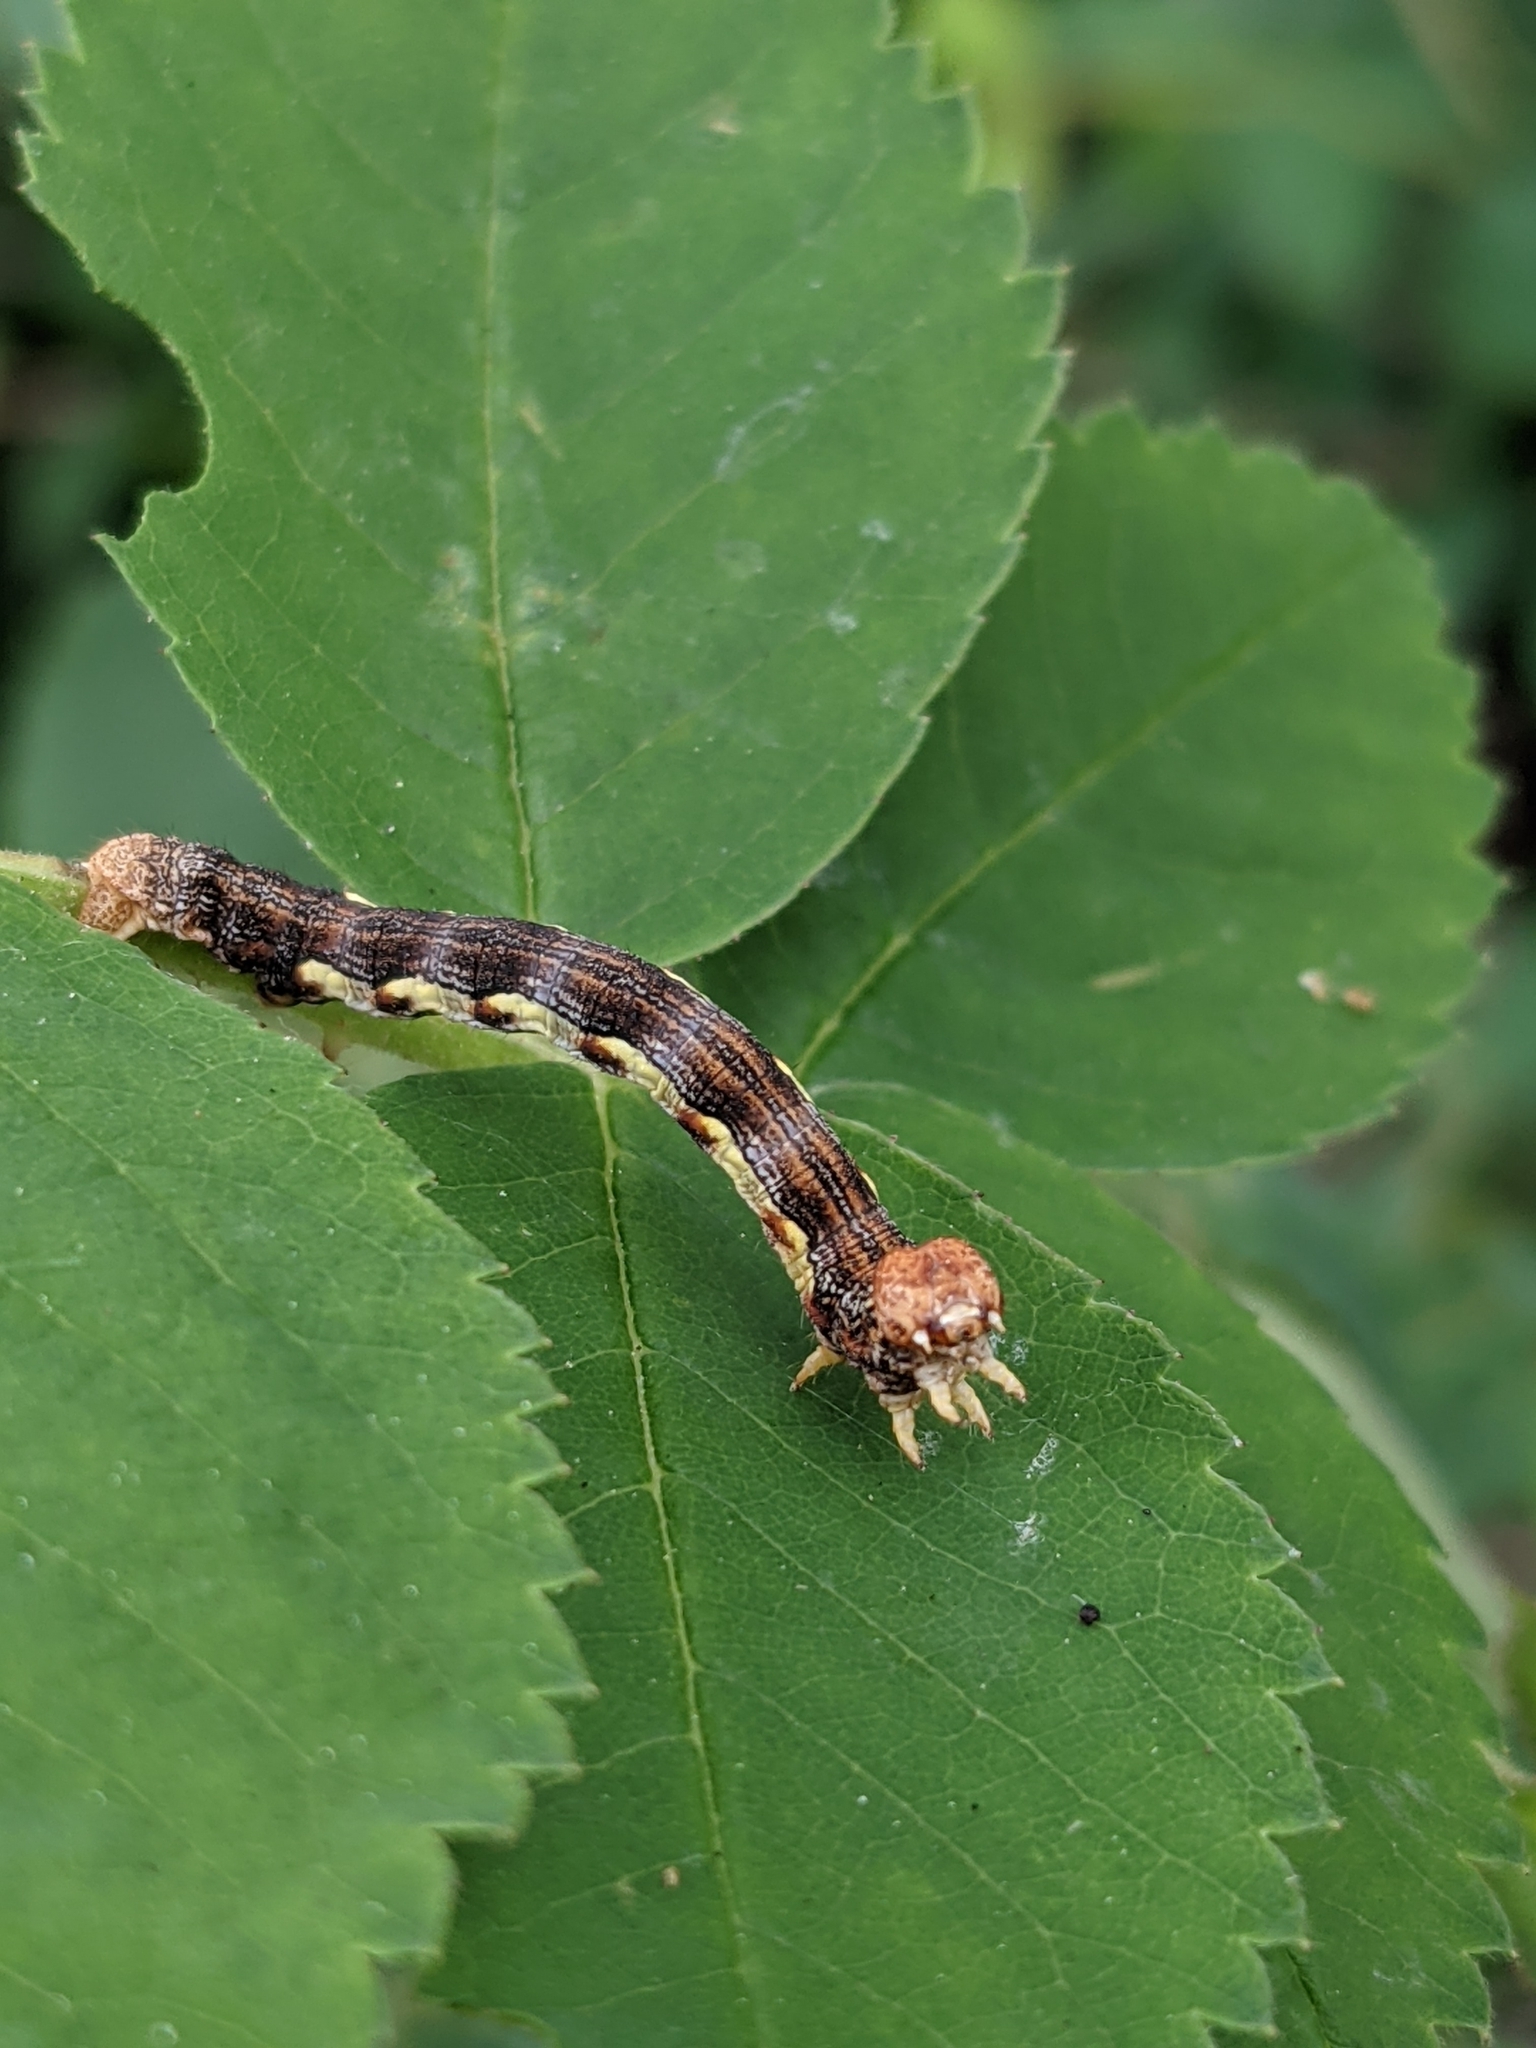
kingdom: Animalia
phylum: Arthropoda
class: Insecta
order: Lepidoptera
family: Geometridae
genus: Erannis
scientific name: Erannis vancouverensis
